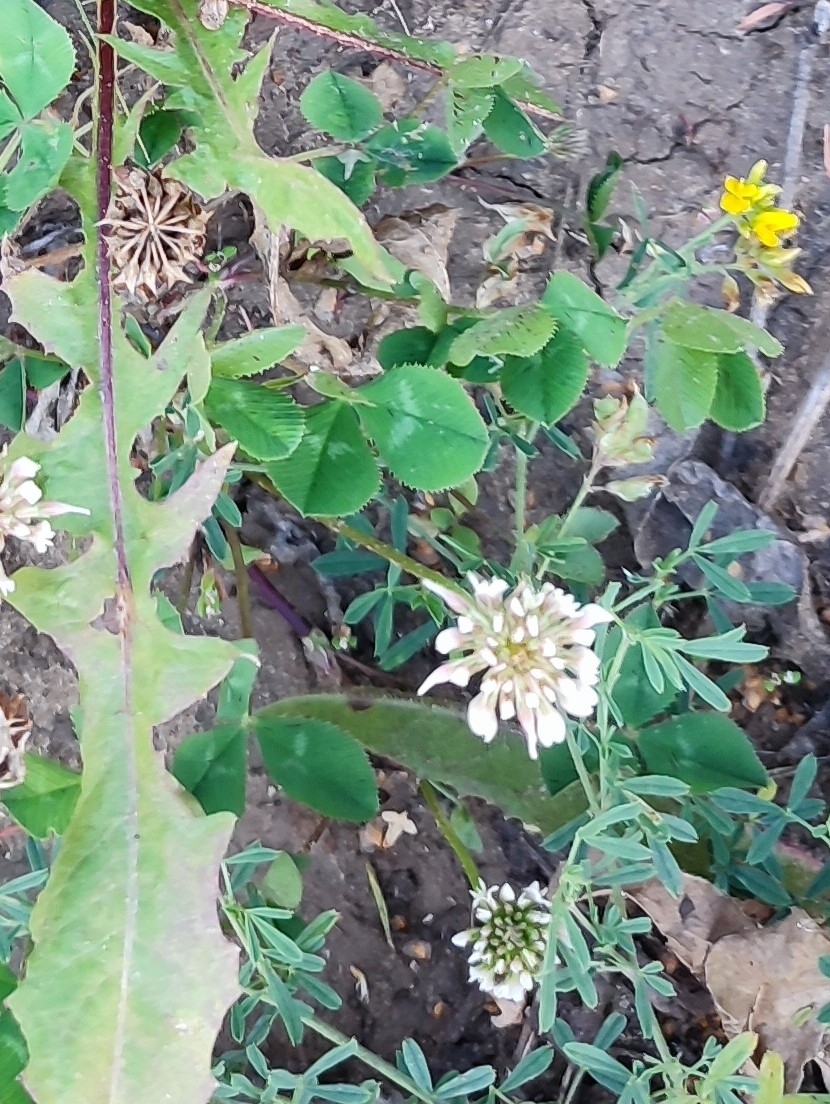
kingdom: Plantae
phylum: Tracheophyta
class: Magnoliopsida
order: Fabales
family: Fabaceae
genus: Trifolium
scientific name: Trifolium repens
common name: White clover
